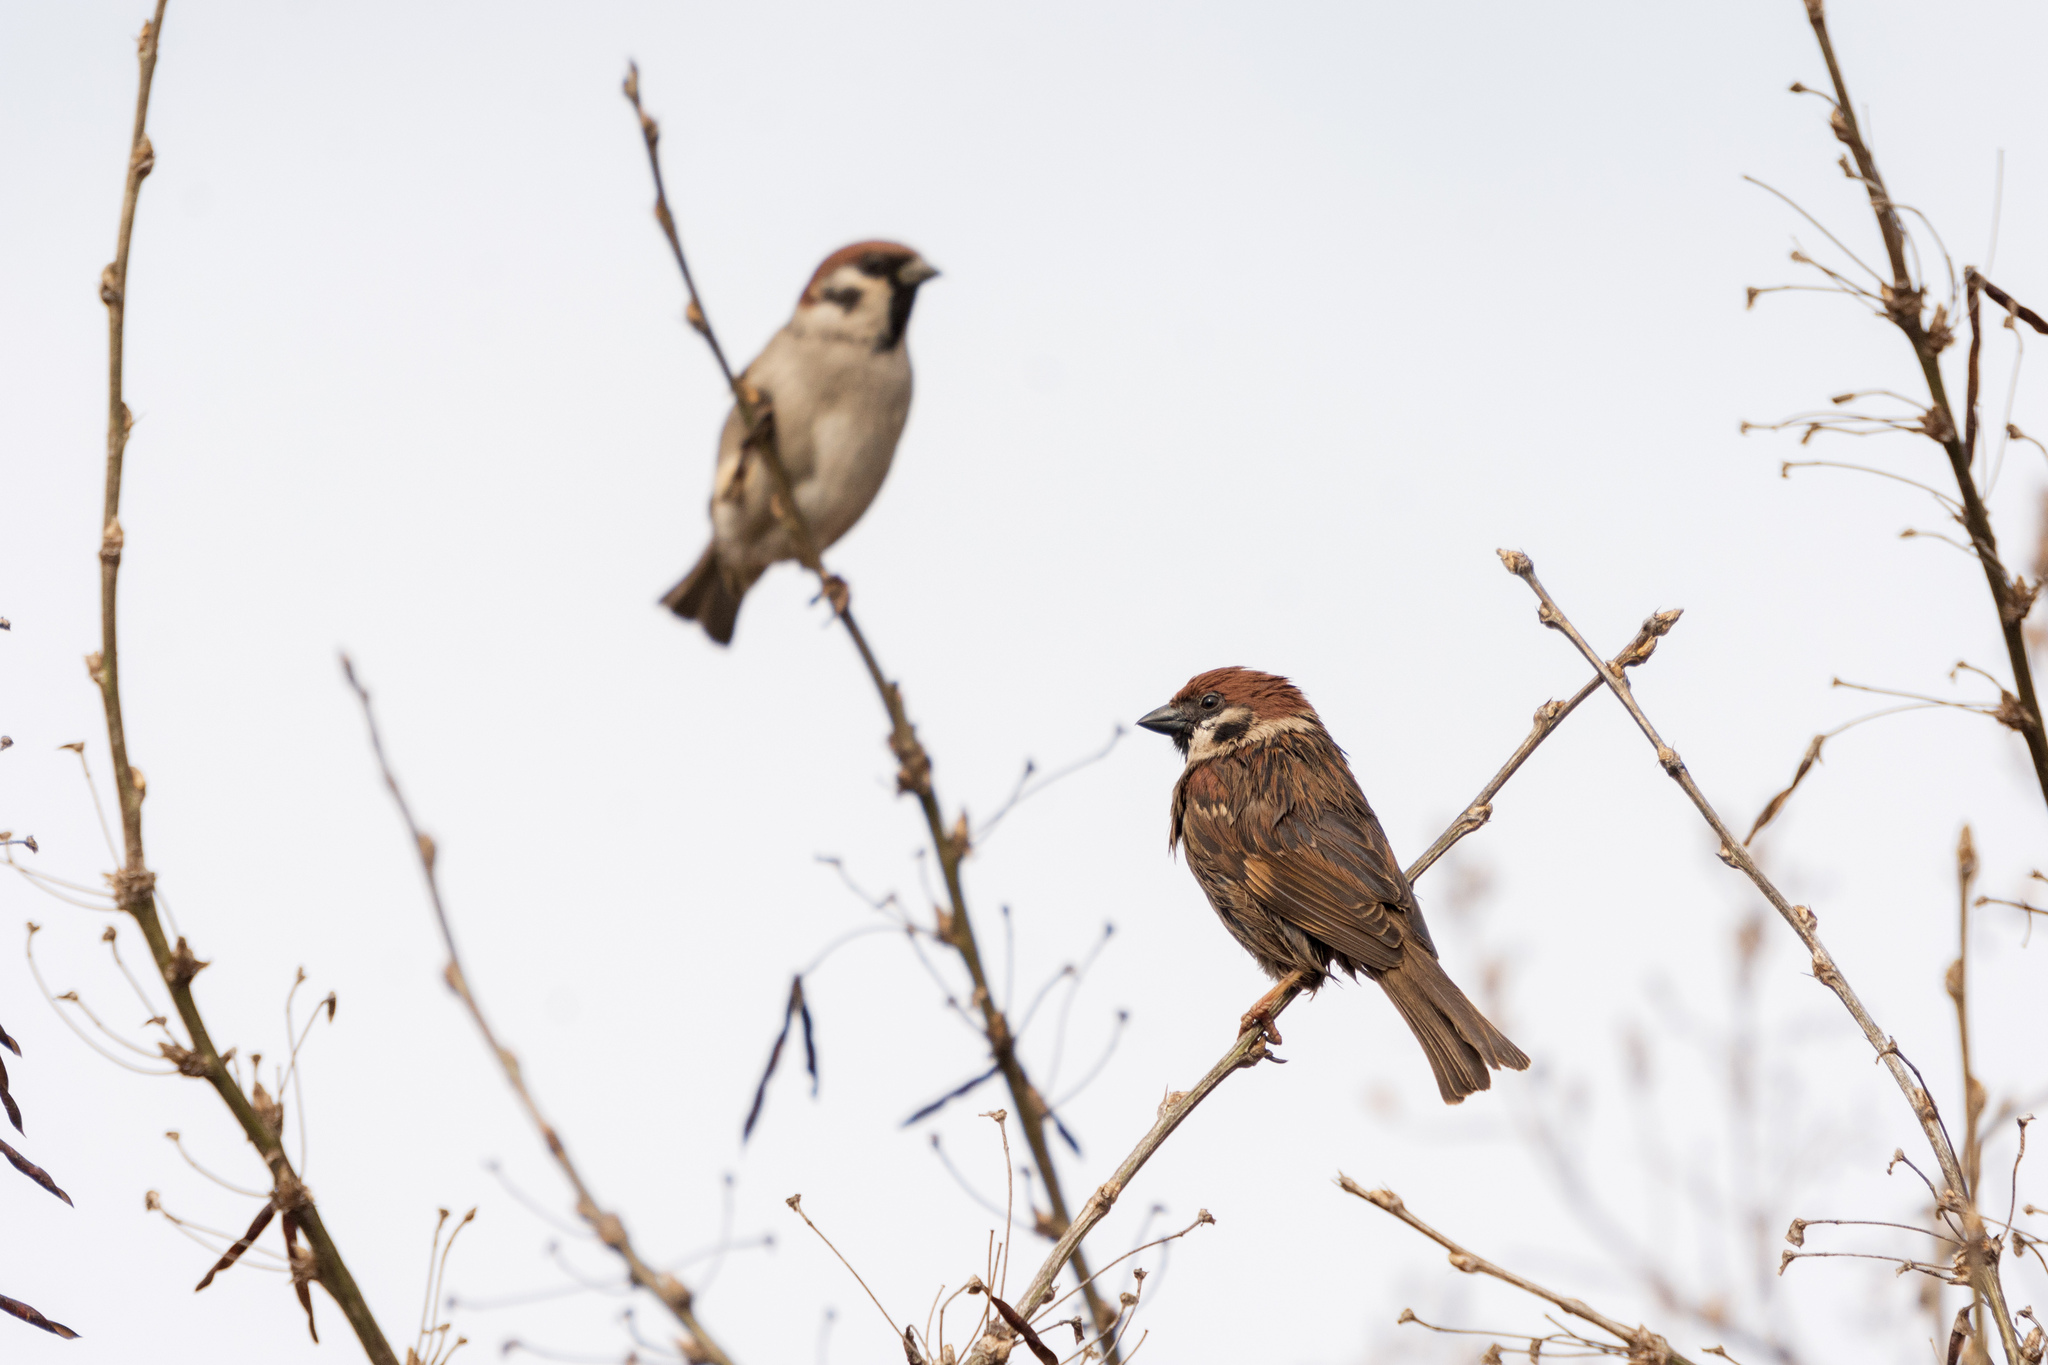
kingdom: Animalia
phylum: Chordata
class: Aves
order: Passeriformes
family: Passeridae
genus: Passer
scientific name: Passer montanus
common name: Eurasian tree sparrow
